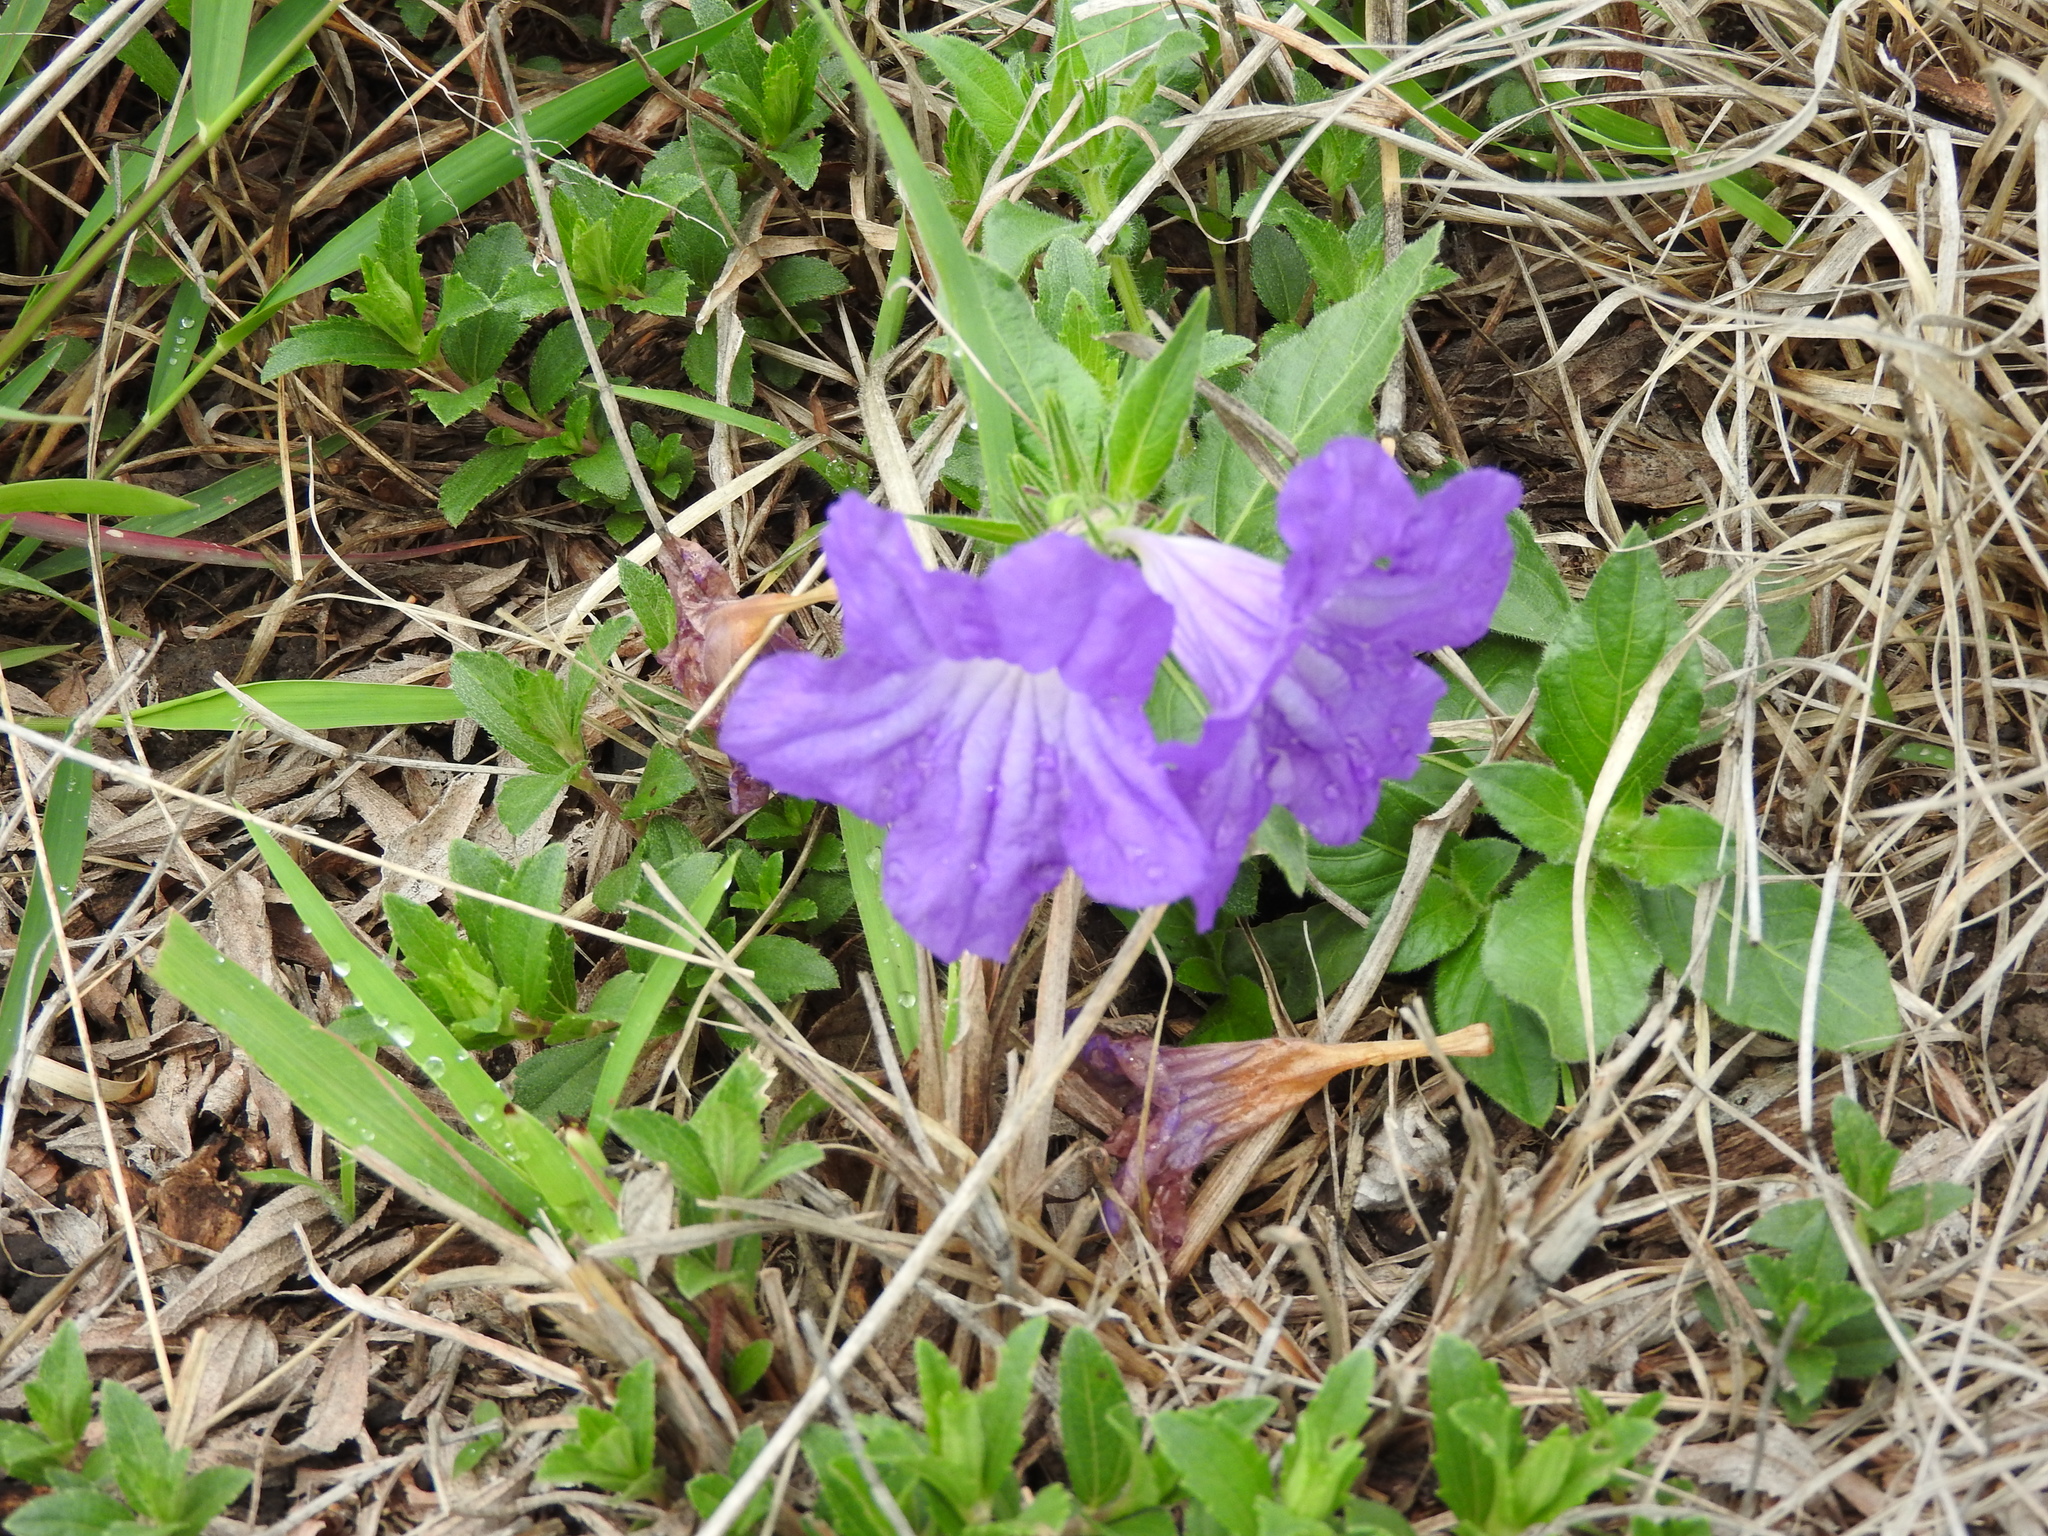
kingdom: Plantae
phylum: Tracheophyta
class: Magnoliopsida
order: Lamiales
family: Acanthaceae
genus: Ruellia
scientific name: Ruellia lactea
